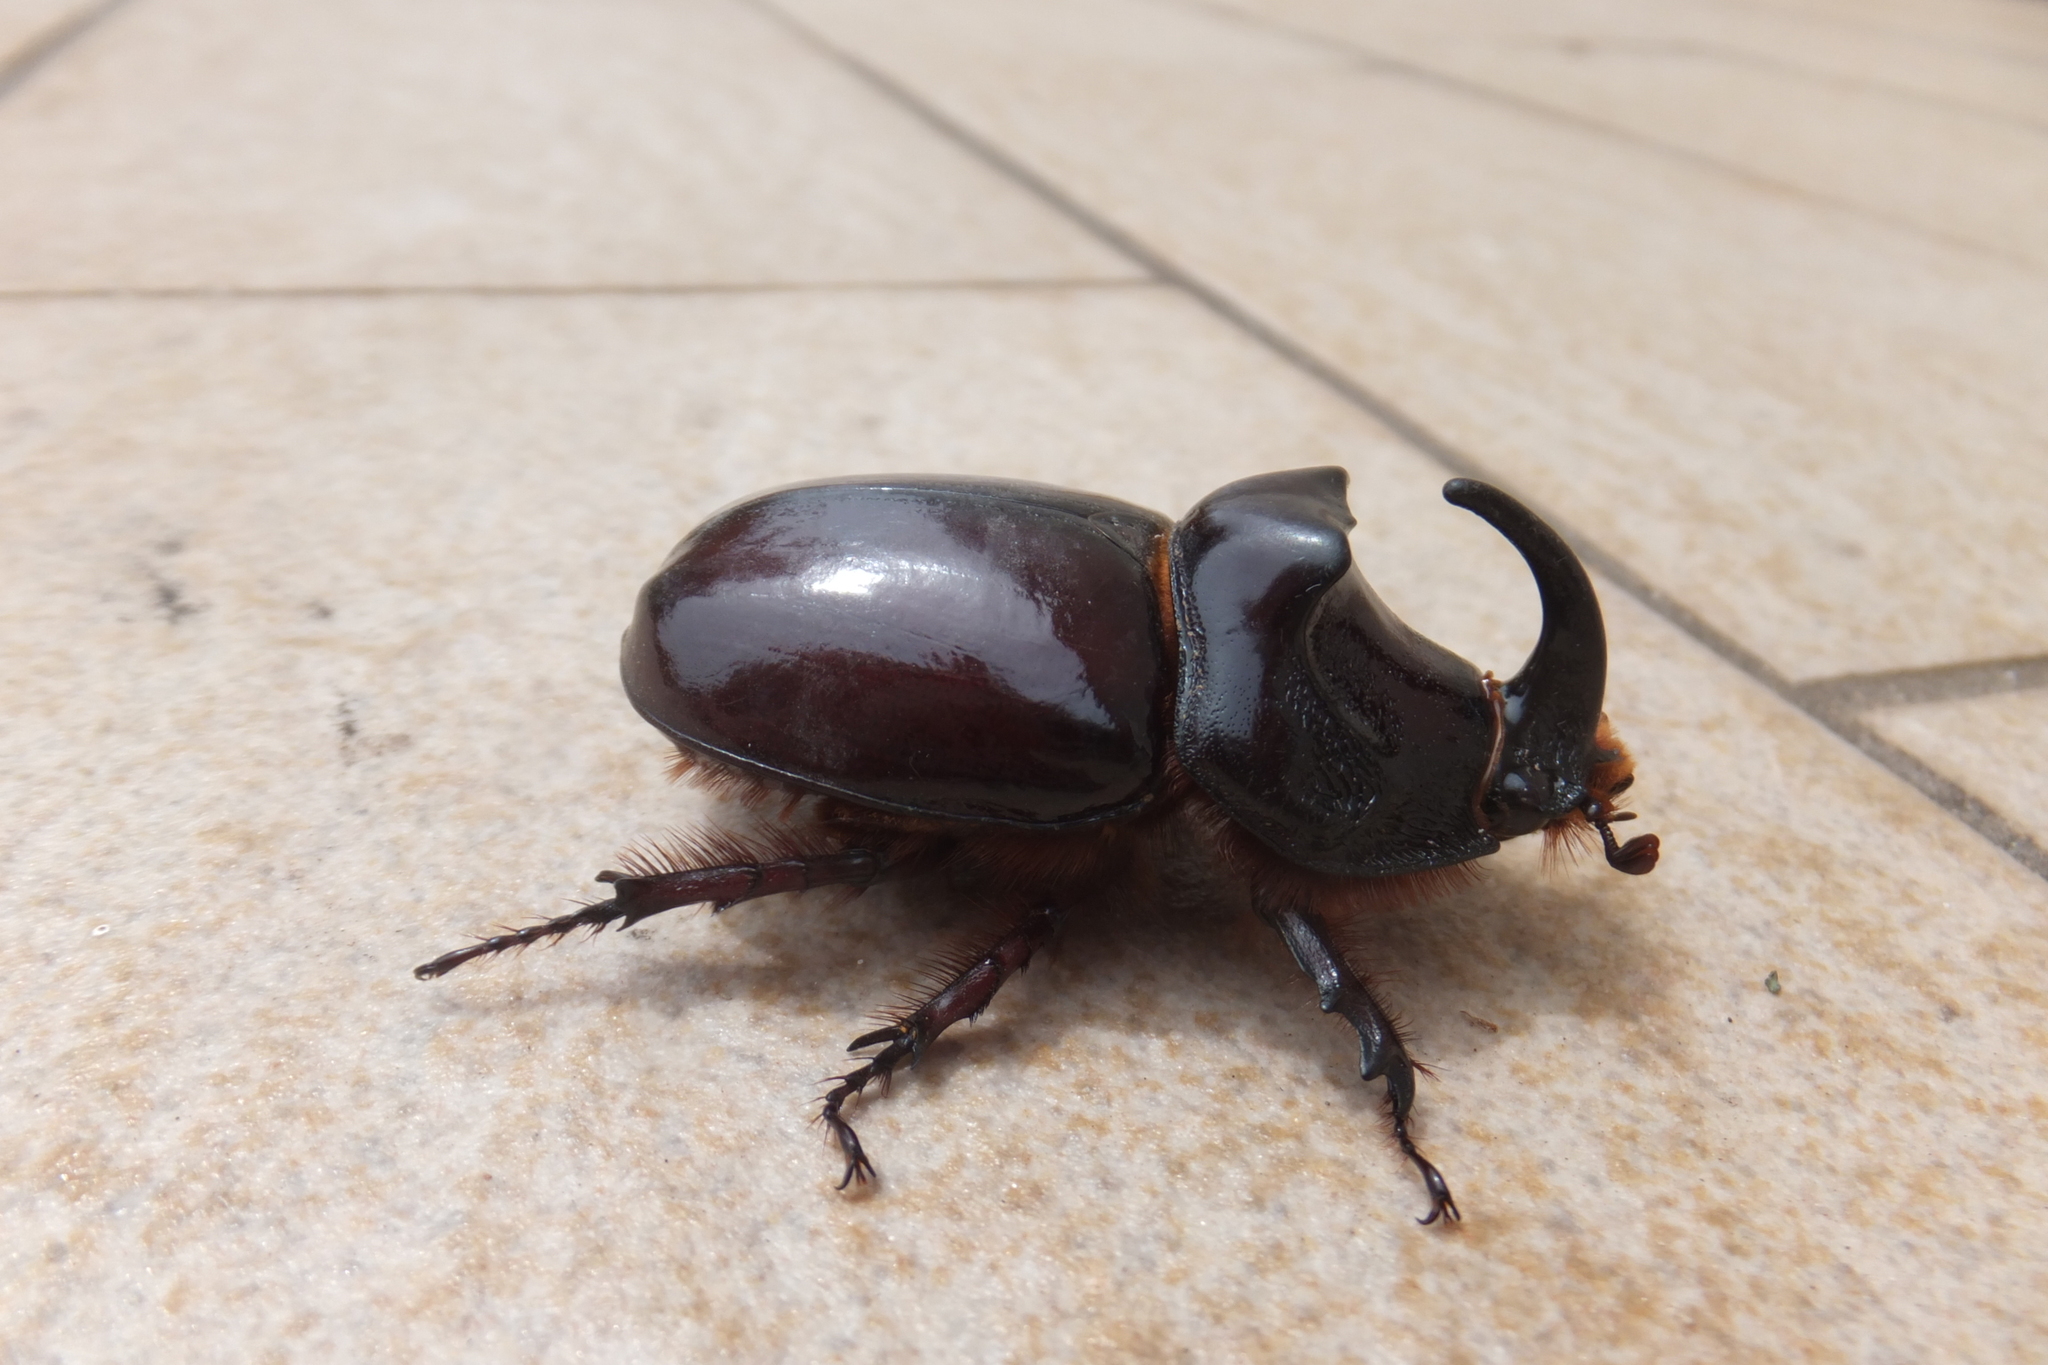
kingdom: Animalia
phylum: Arthropoda
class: Insecta
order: Coleoptera
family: Scarabaeidae
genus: Oryctes
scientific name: Oryctes nasicornis
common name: European rhinoceros beetle
